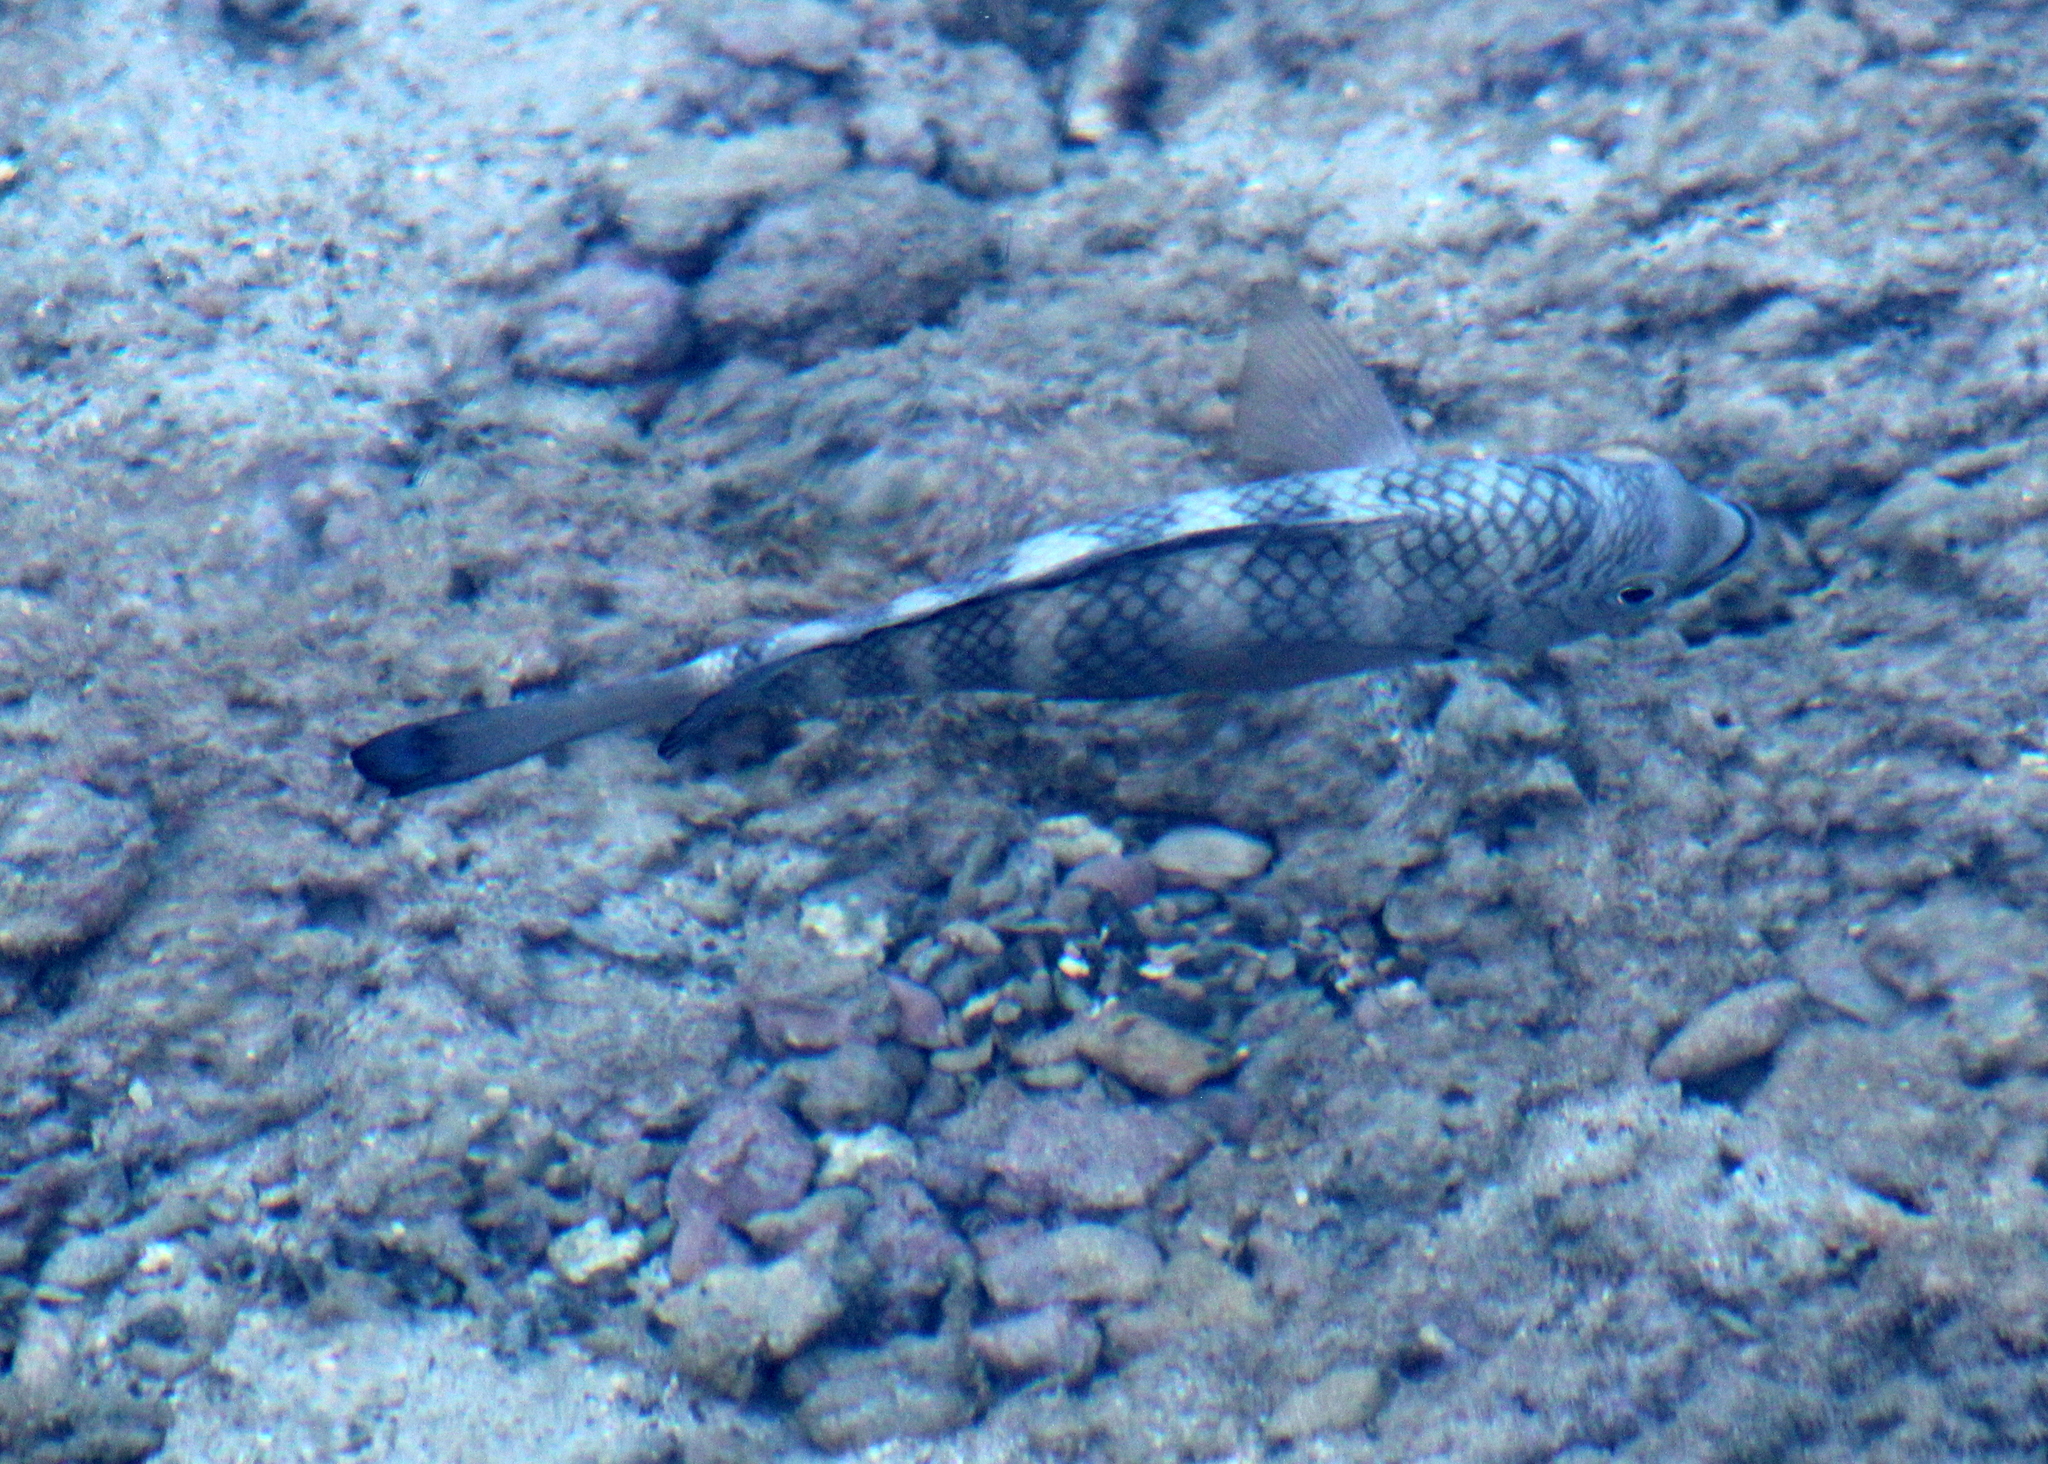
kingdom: Animalia
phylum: Chordata
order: Perciformes
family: Pomacentridae
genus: Abudefduf
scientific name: Abudefduf septemfasciatus
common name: Banded sergeant
